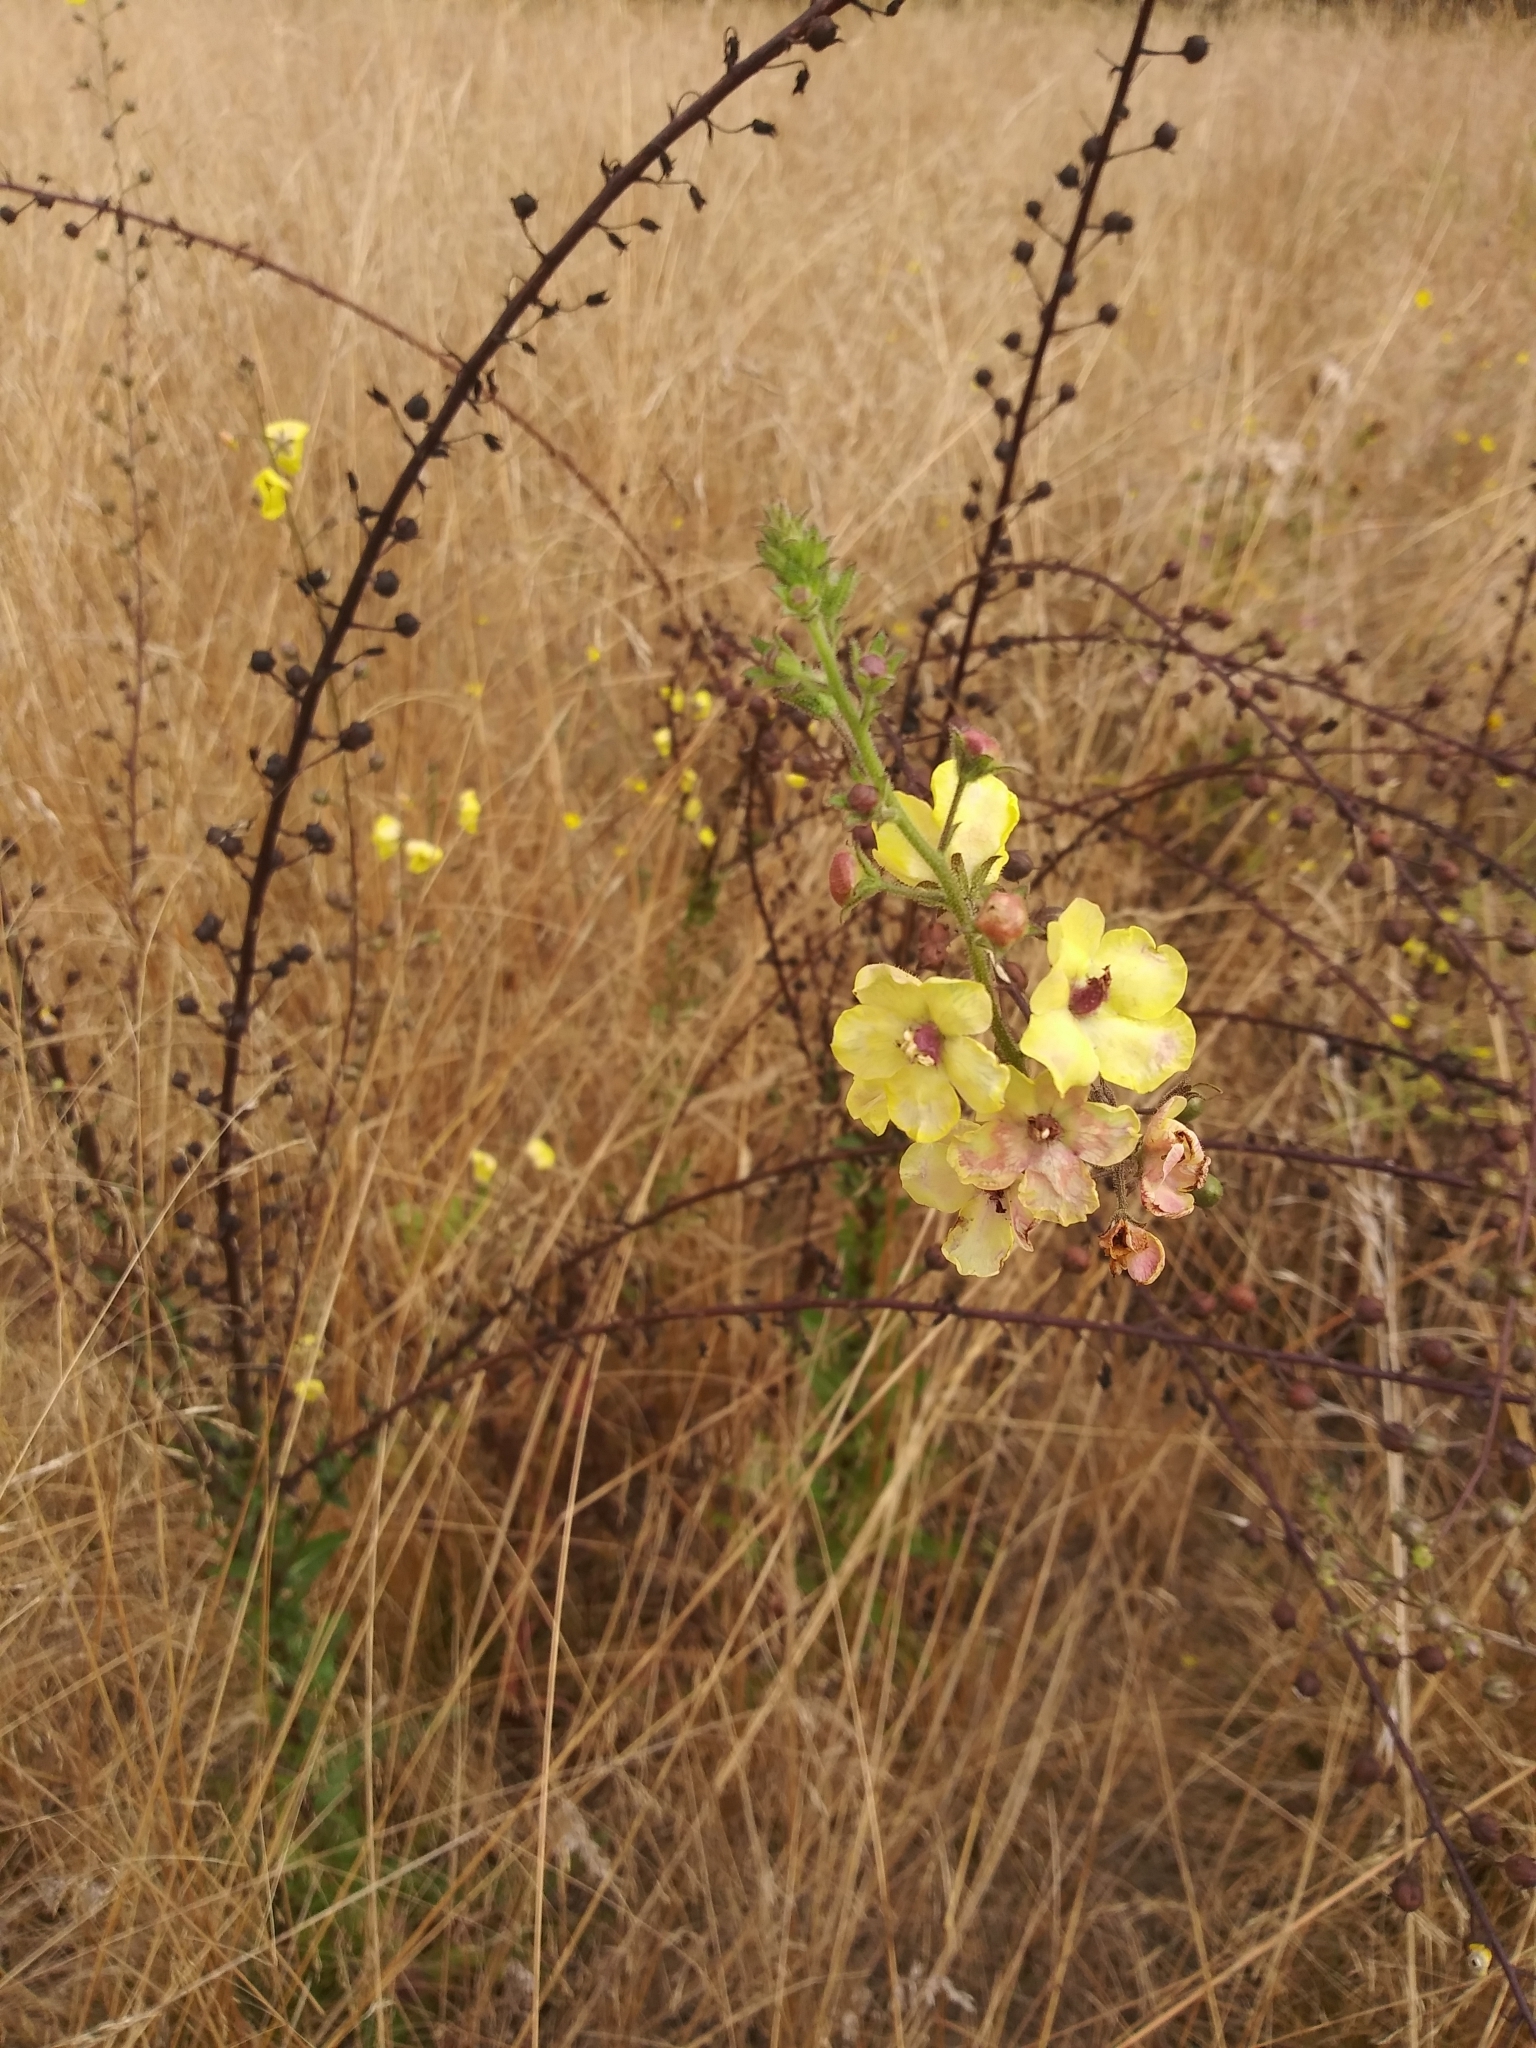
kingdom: Plantae
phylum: Tracheophyta
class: Magnoliopsida
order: Lamiales
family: Scrophulariaceae
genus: Verbascum
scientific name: Verbascum blattaria
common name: Moth mullein
